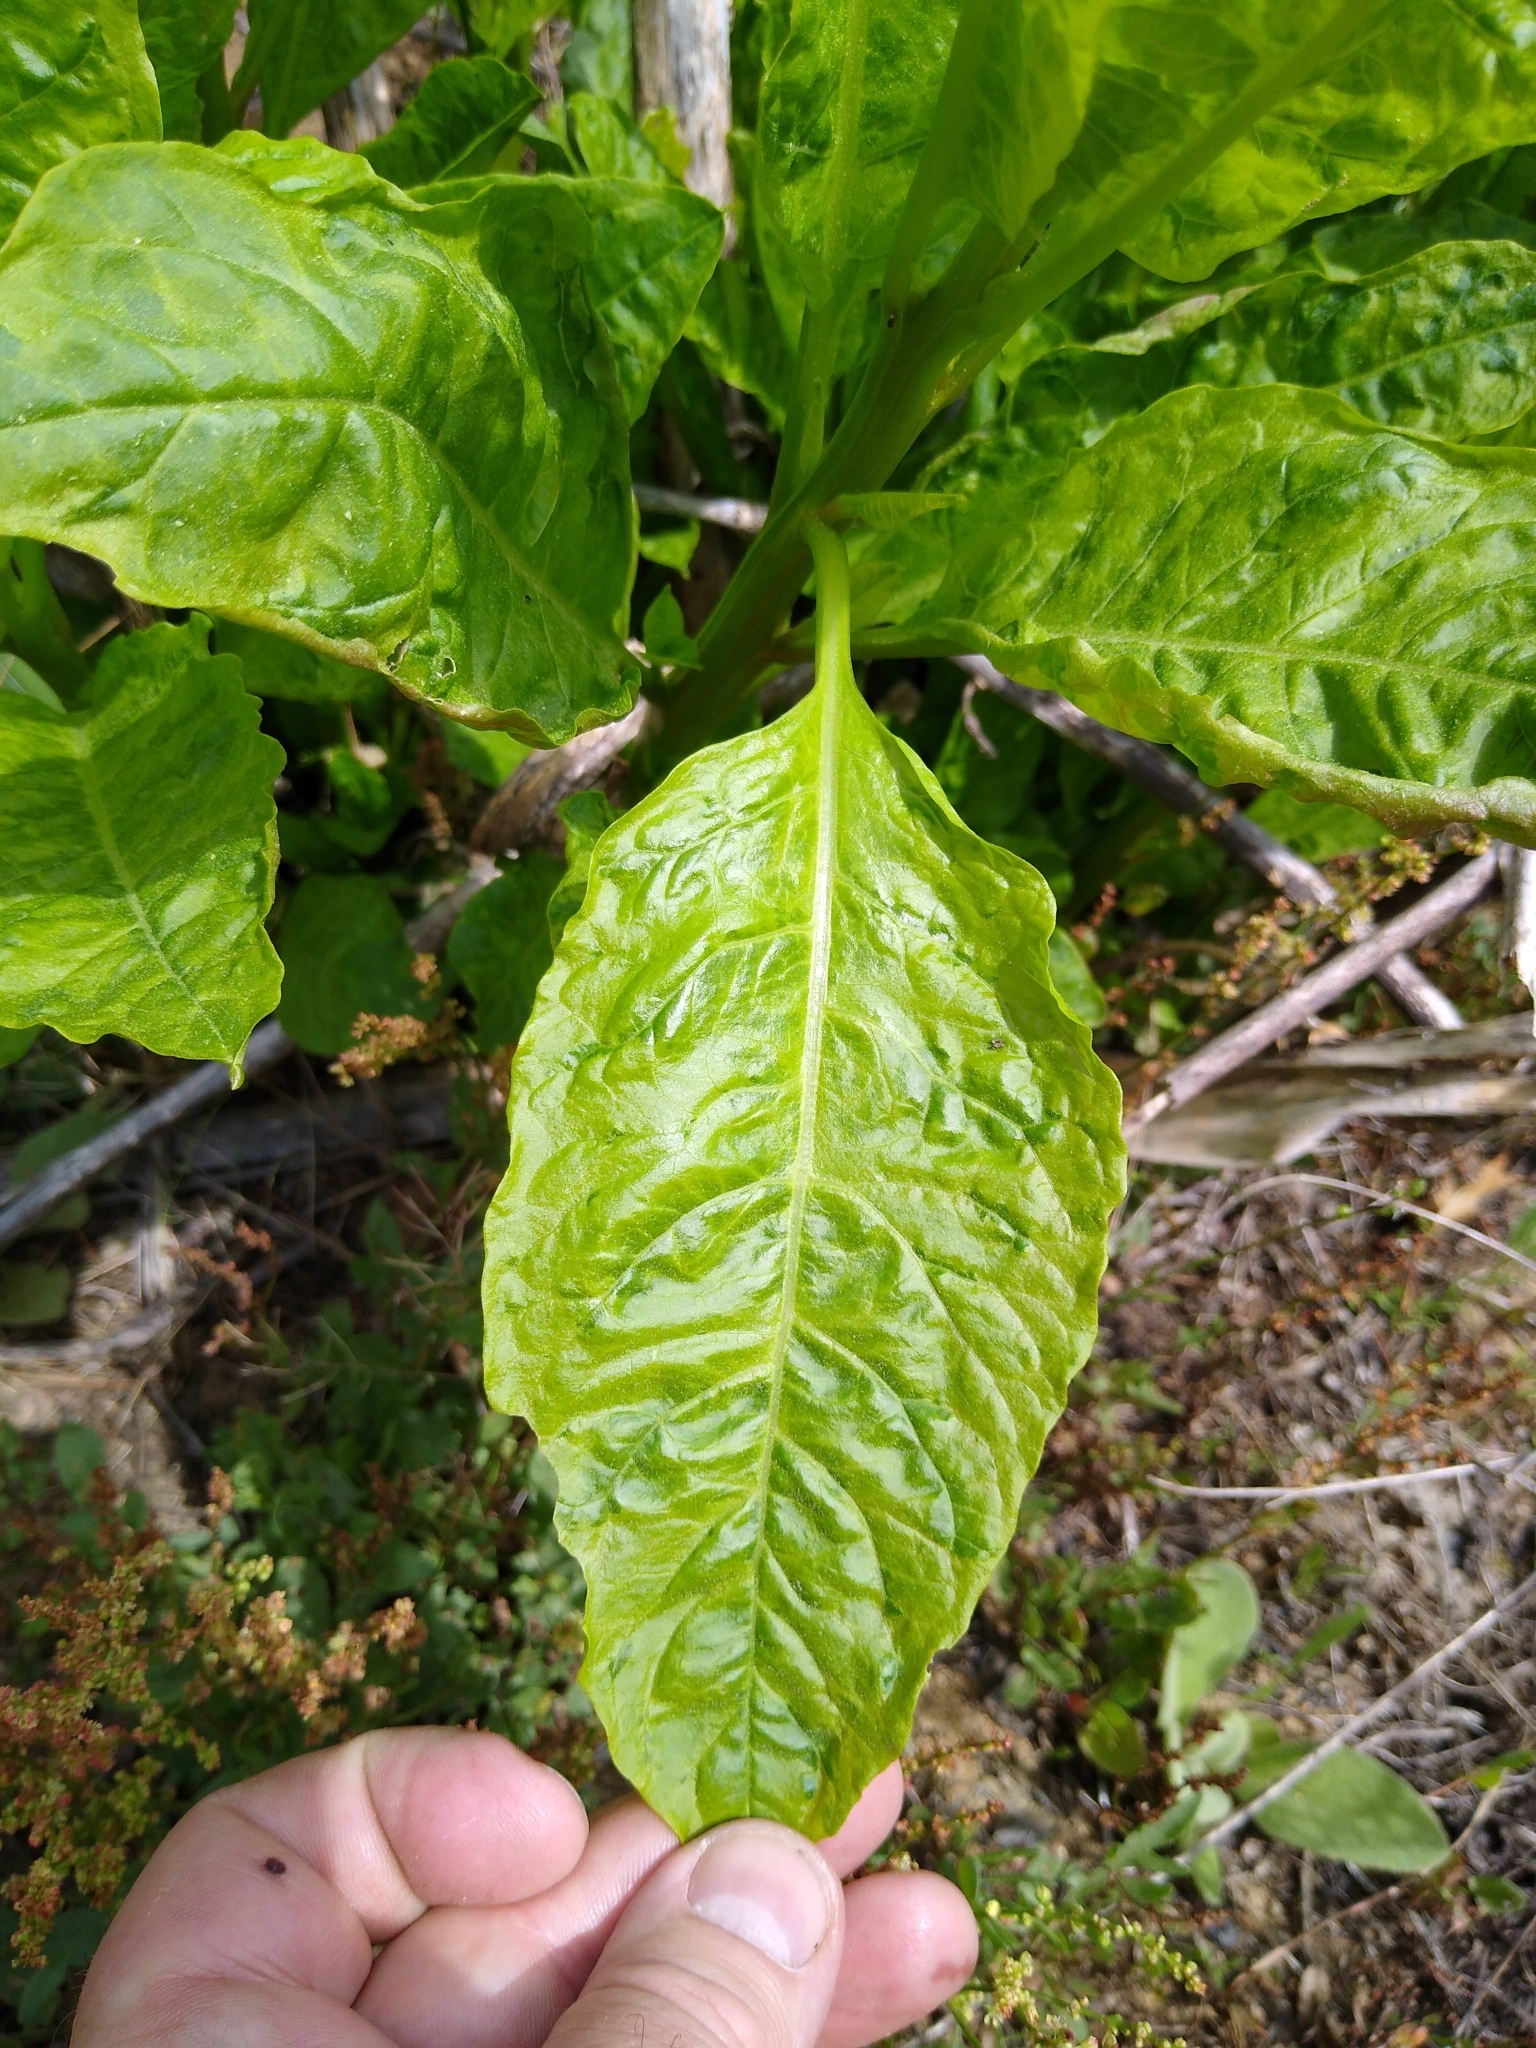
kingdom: Plantae
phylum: Tracheophyta
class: Magnoliopsida
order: Caryophyllales
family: Phytolaccaceae
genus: Phytolacca
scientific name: Phytolacca americana
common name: American pokeweed
